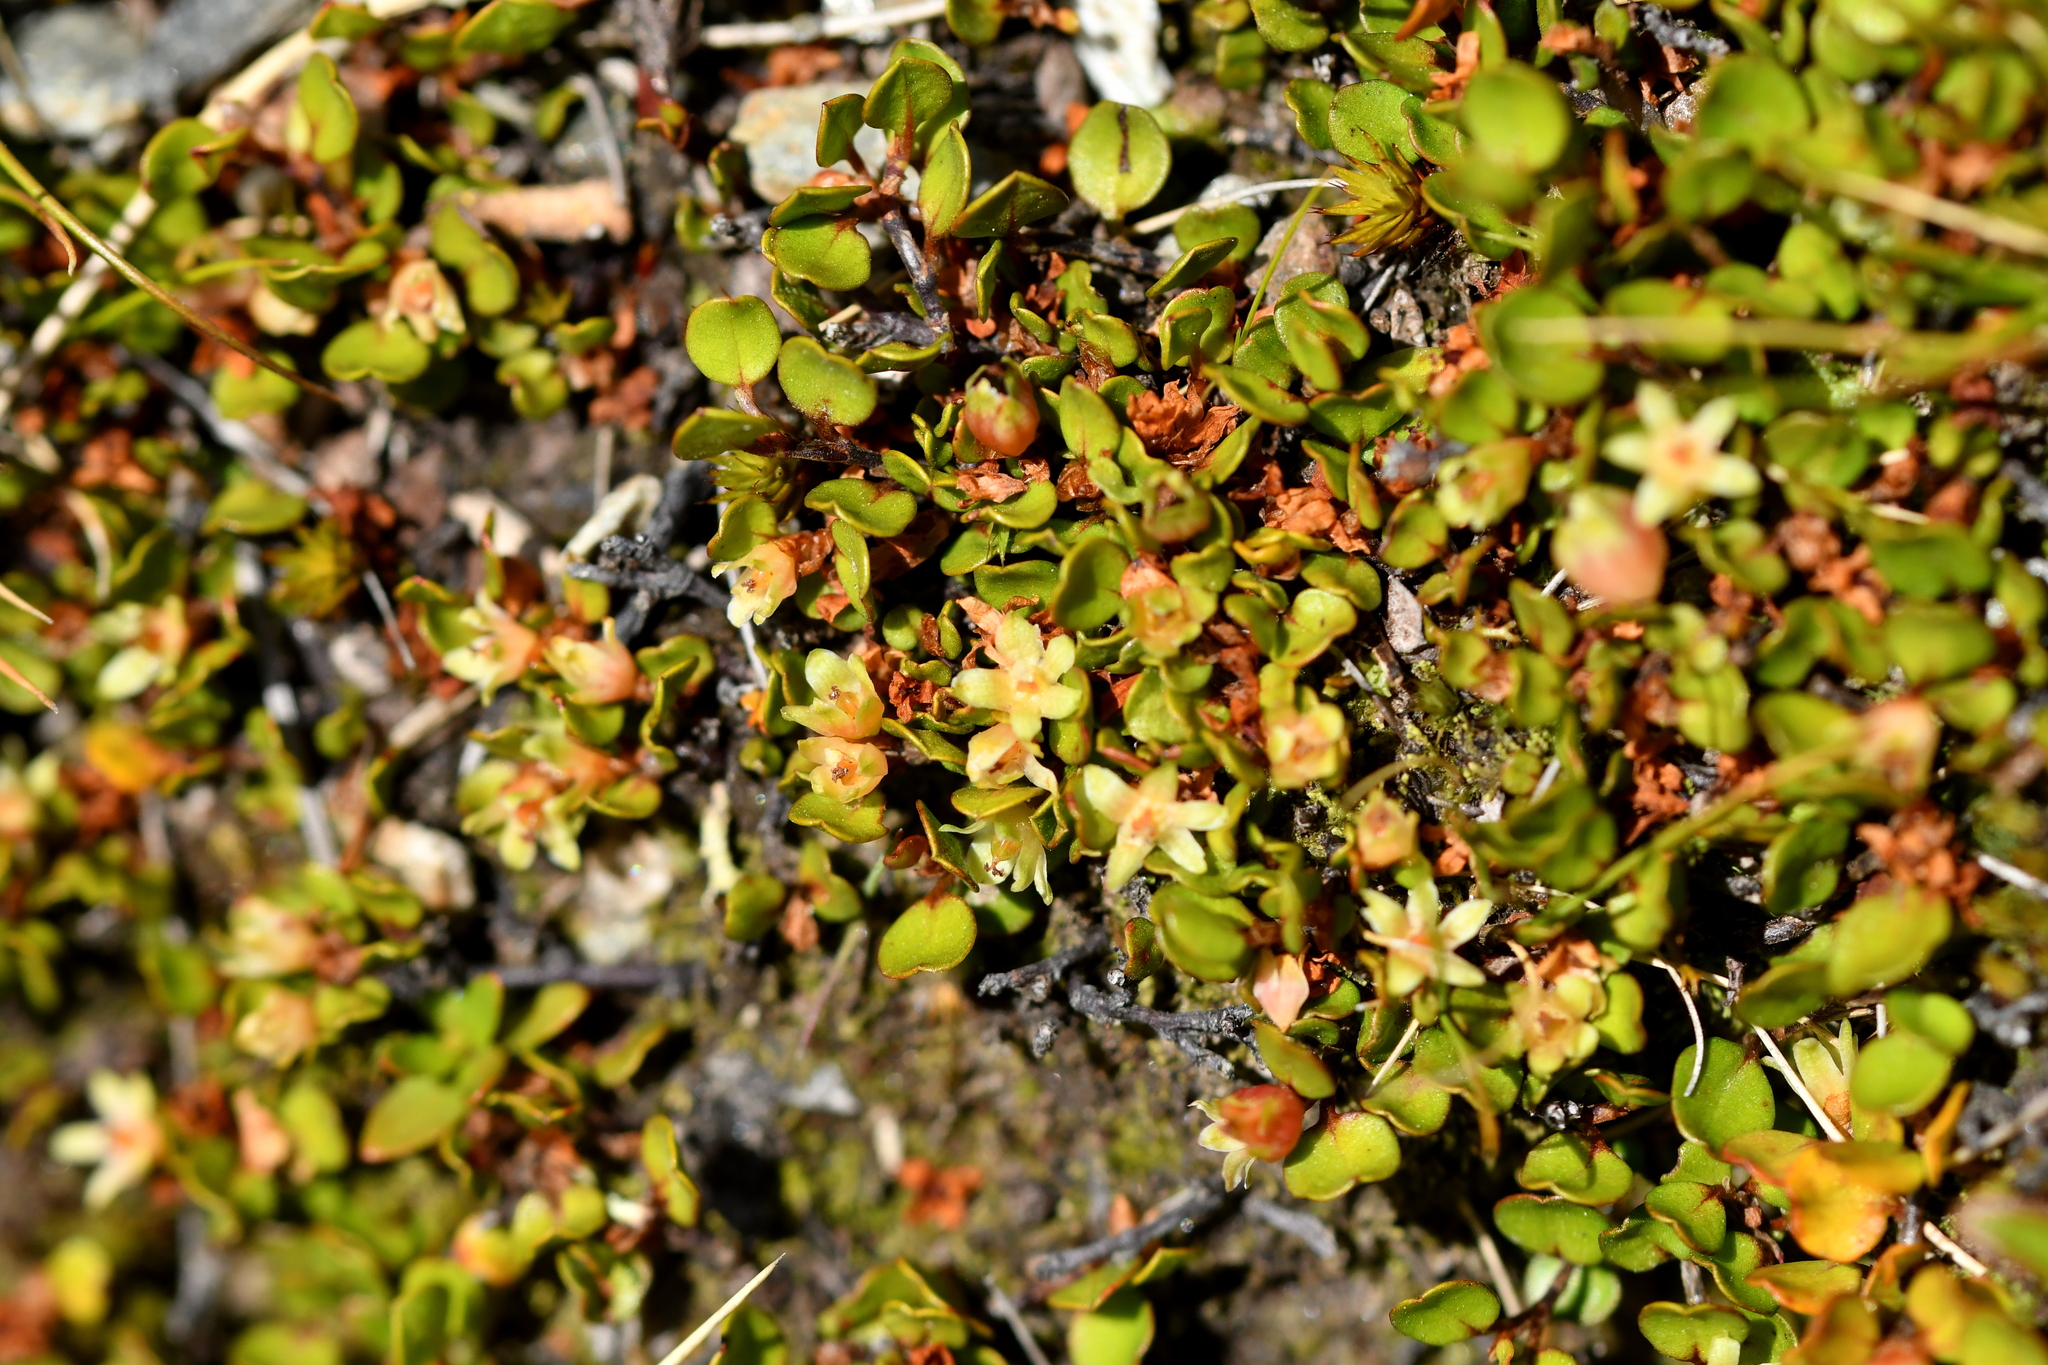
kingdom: Plantae
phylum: Tracheophyta
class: Magnoliopsida
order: Caryophyllales
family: Polygonaceae
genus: Muehlenbeckia
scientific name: Muehlenbeckia axillaris
